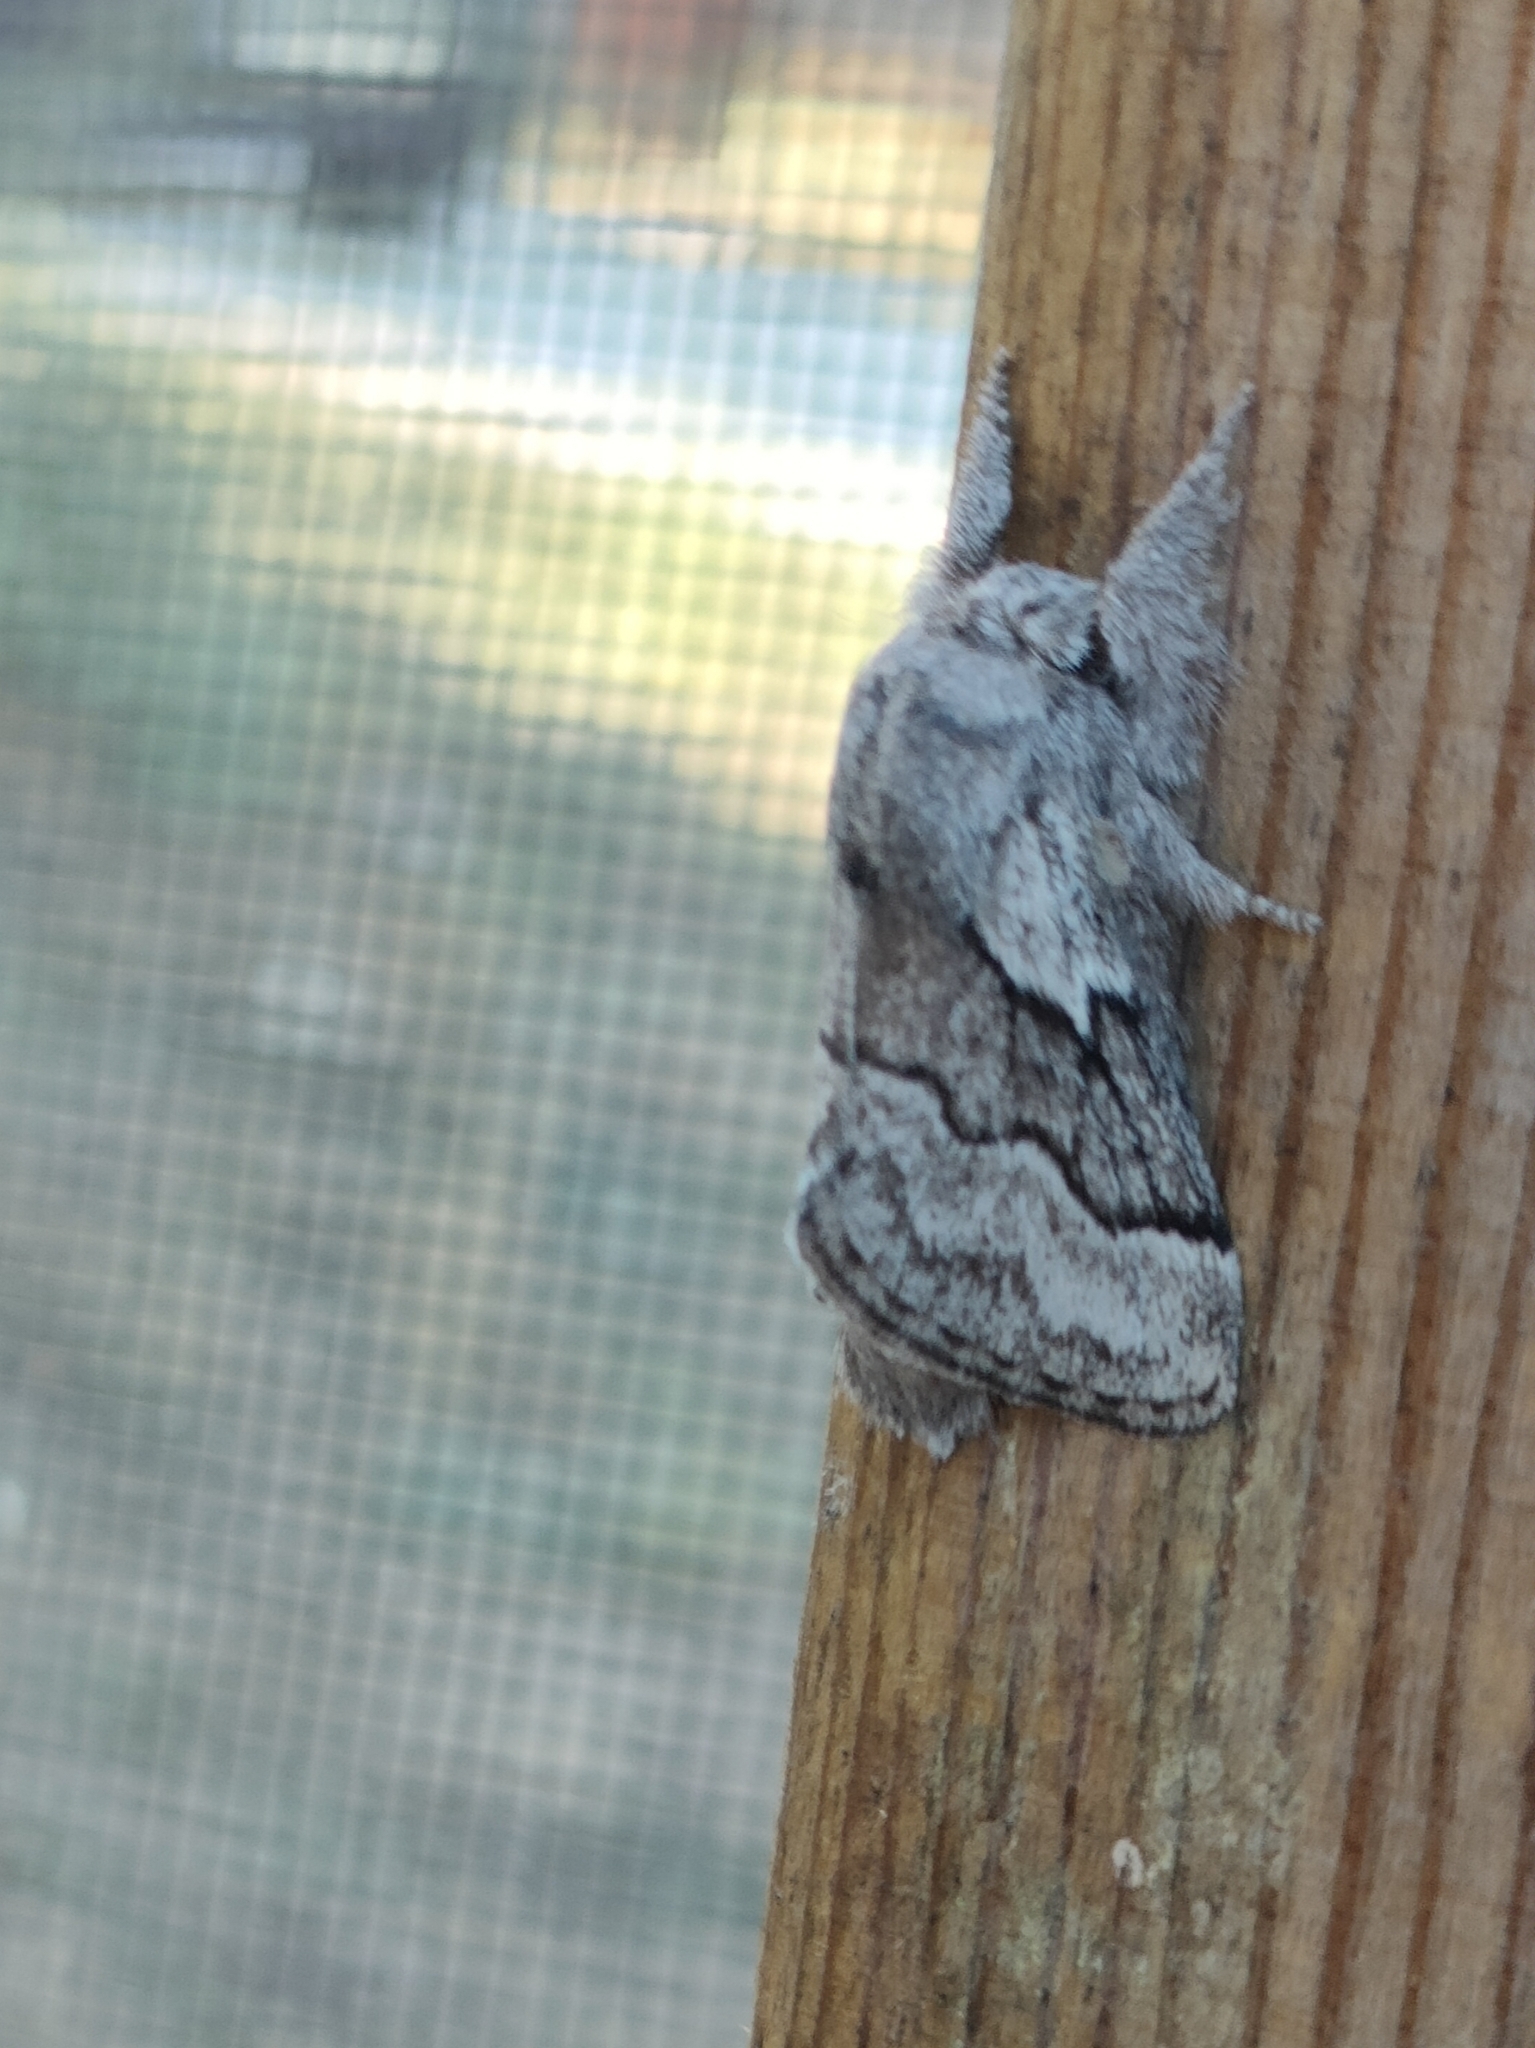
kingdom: Animalia
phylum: Arthropoda
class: Insecta
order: Lepidoptera
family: Lasiocampidae
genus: Trichiura
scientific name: Trichiura castiliana
